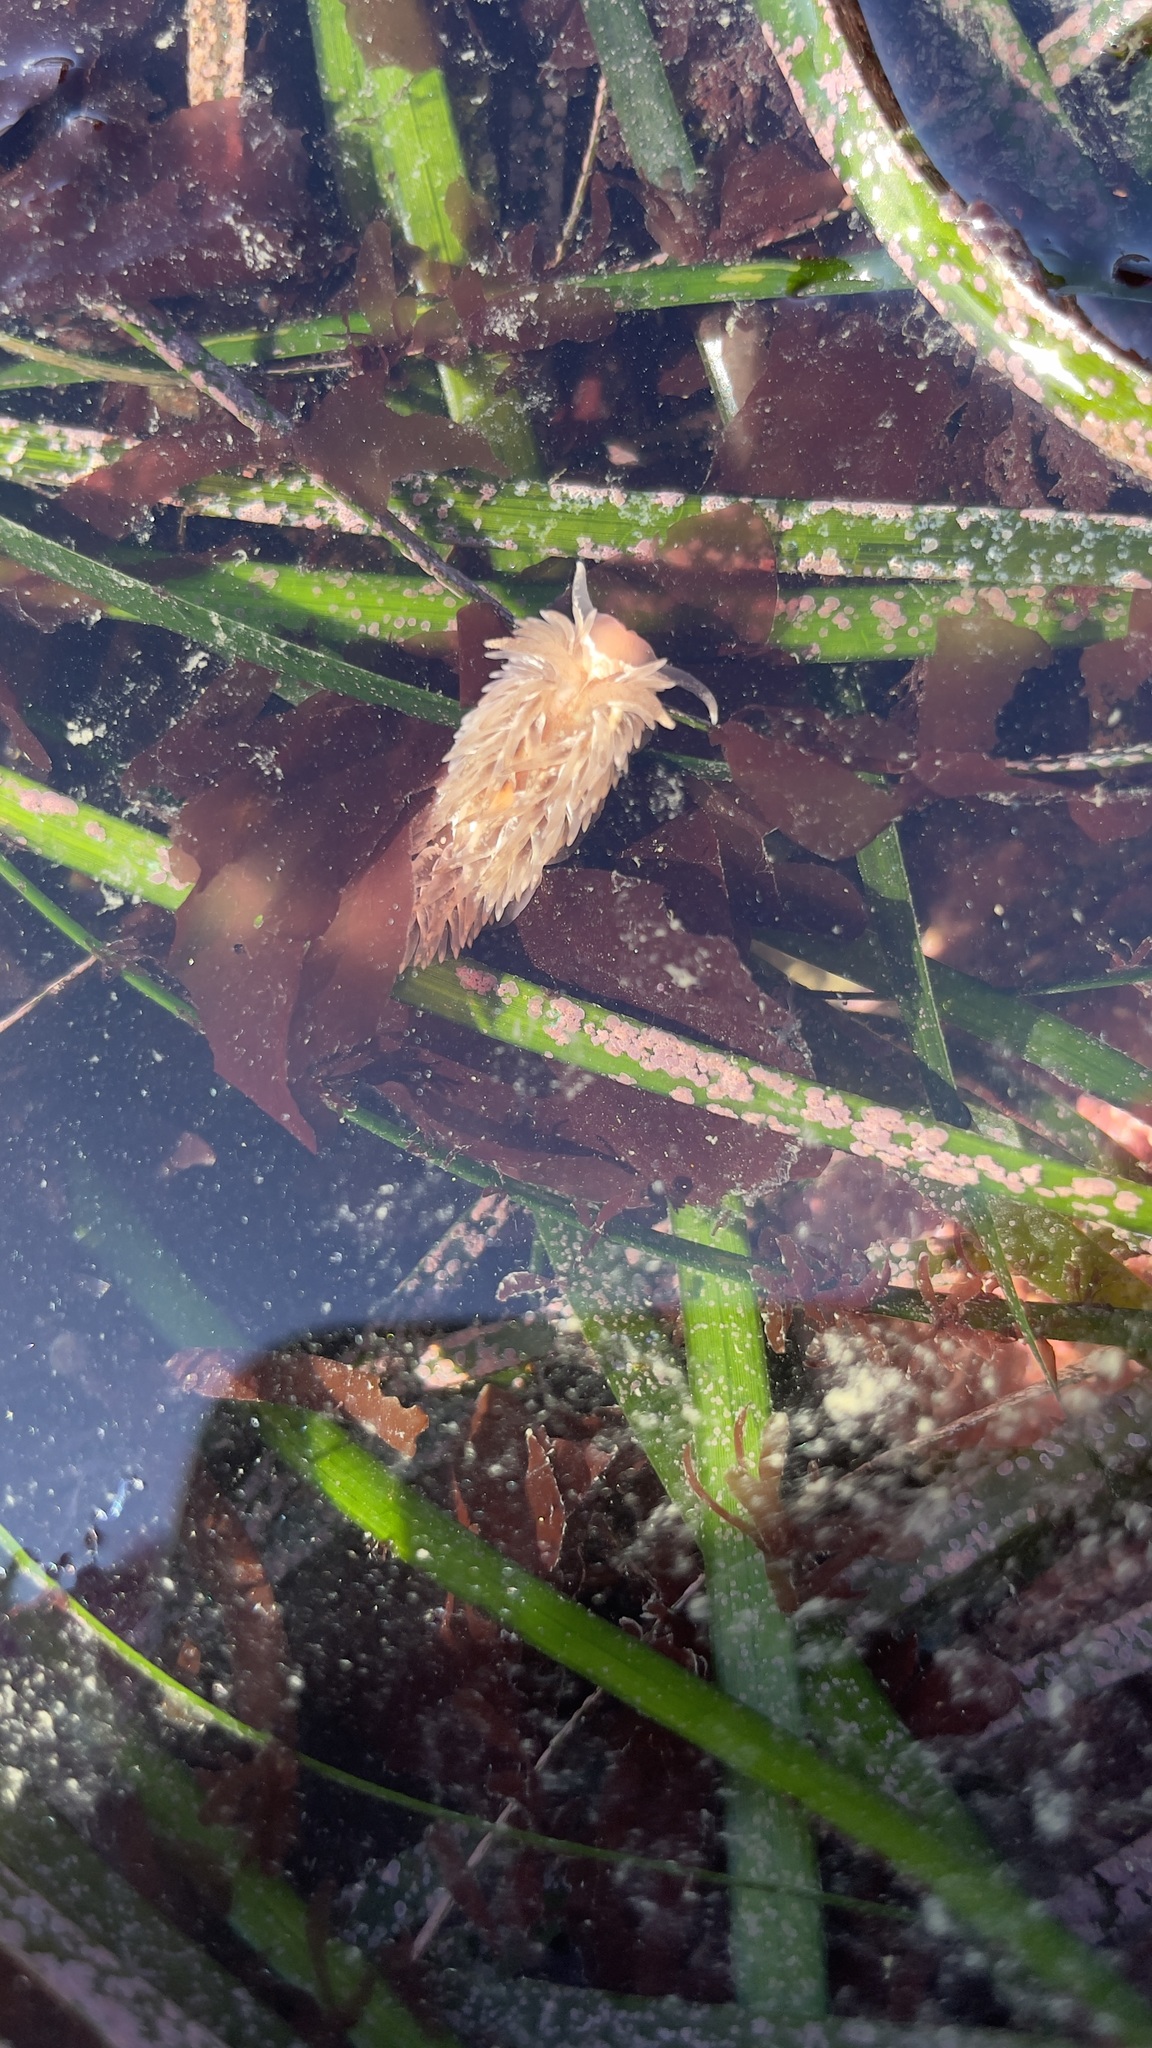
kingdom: Animalia
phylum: Mollusca
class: Gastropoda
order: Nudibranchia
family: Aeolidiidae
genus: Aeolidia
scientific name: Aeolidia loui
